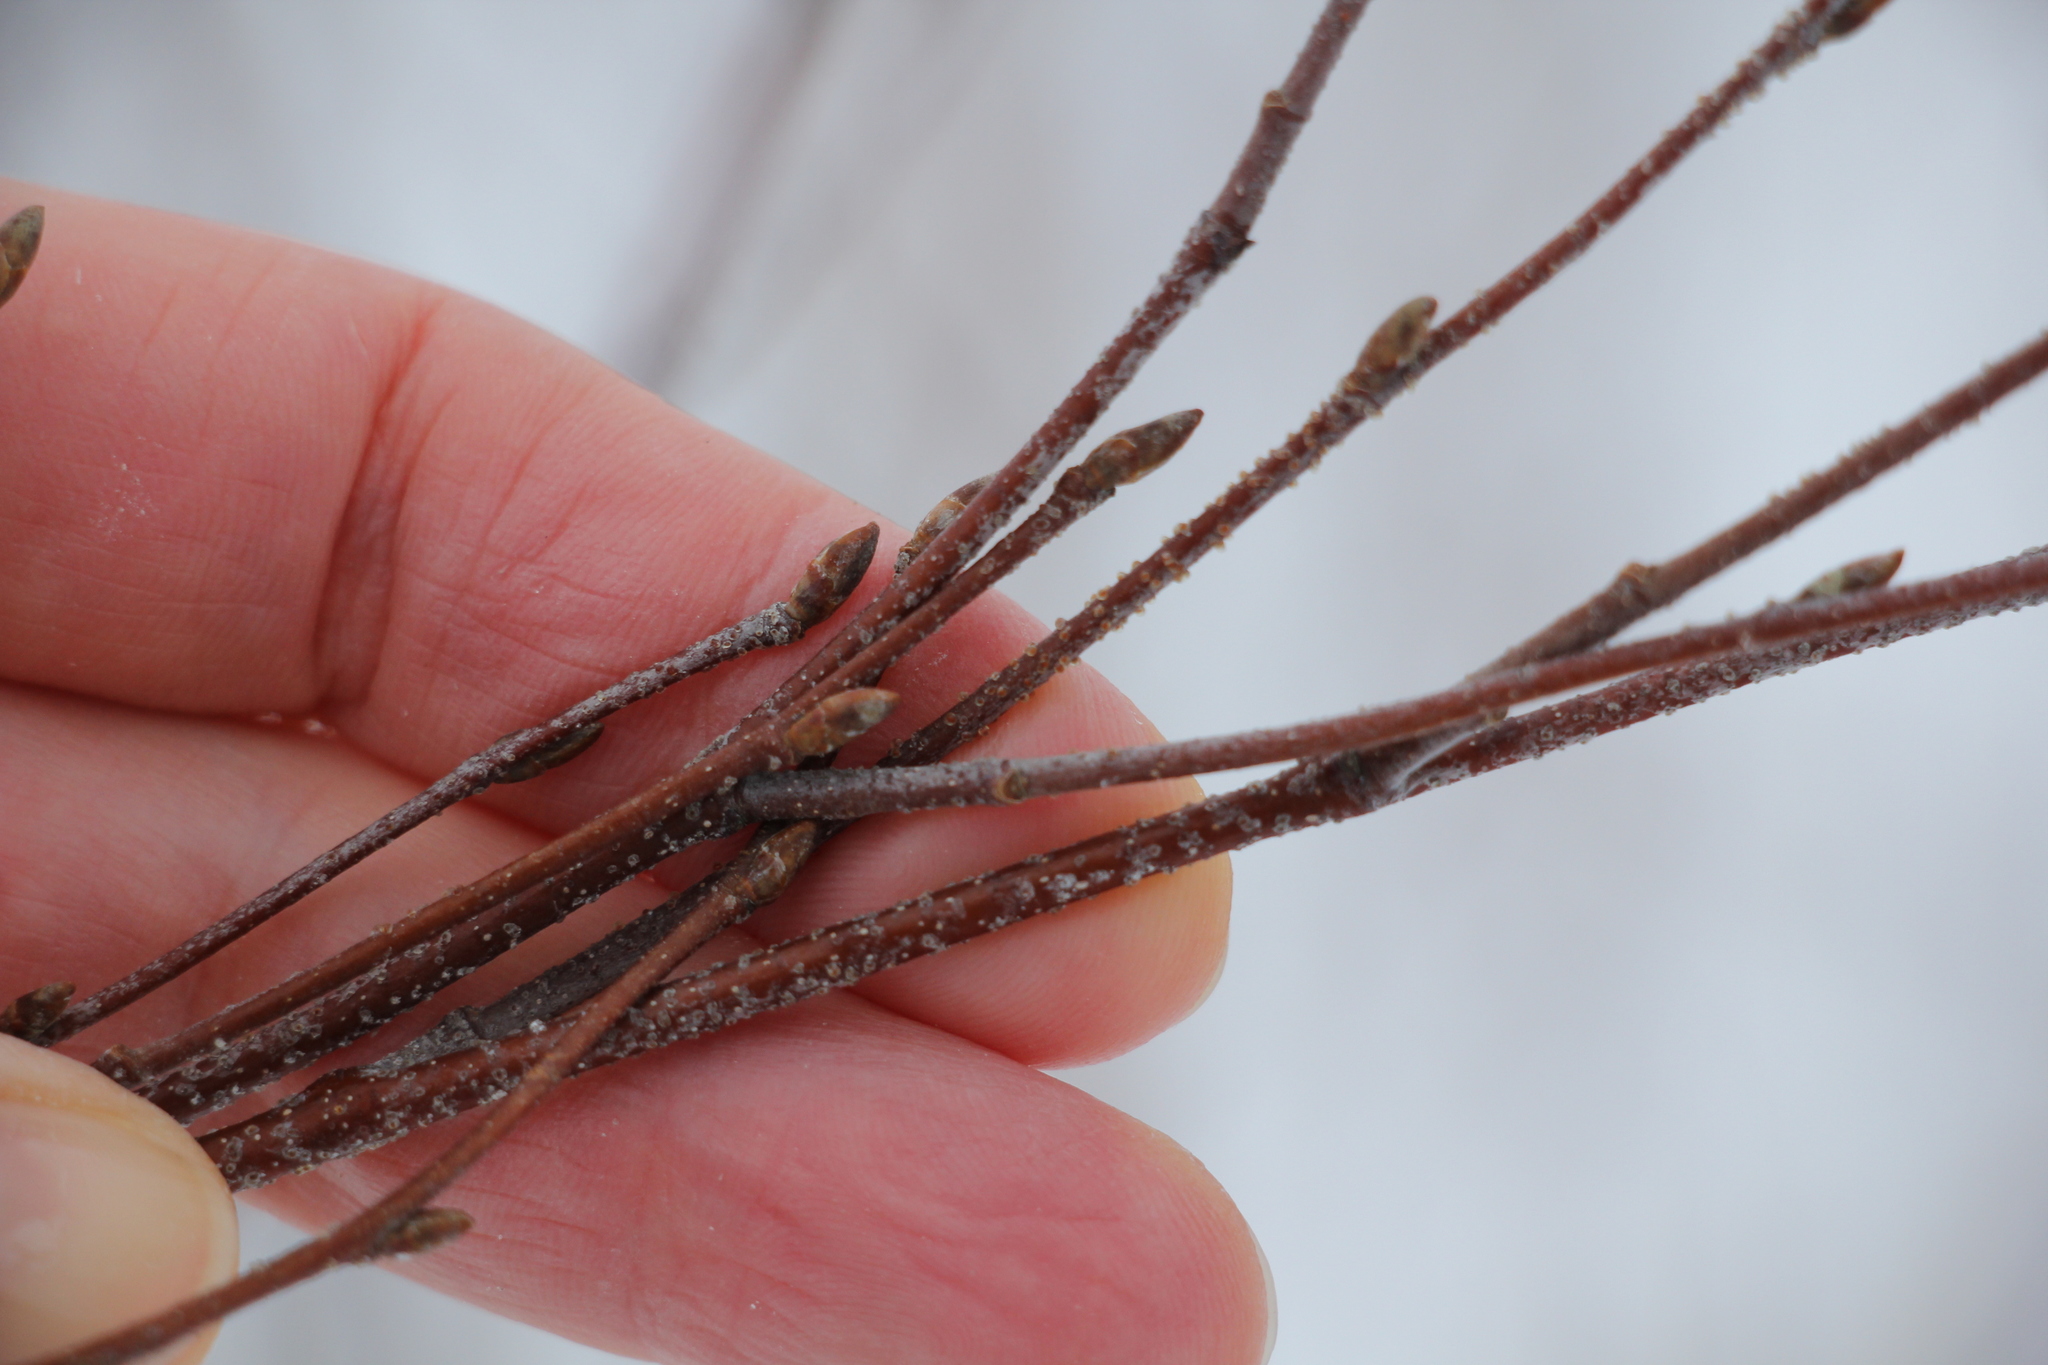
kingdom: Plantae
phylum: Tracheophyta
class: Magnoliopsida
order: Fagales
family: Betulaceae
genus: Betula
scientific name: Betula pendula
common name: Silver birch
